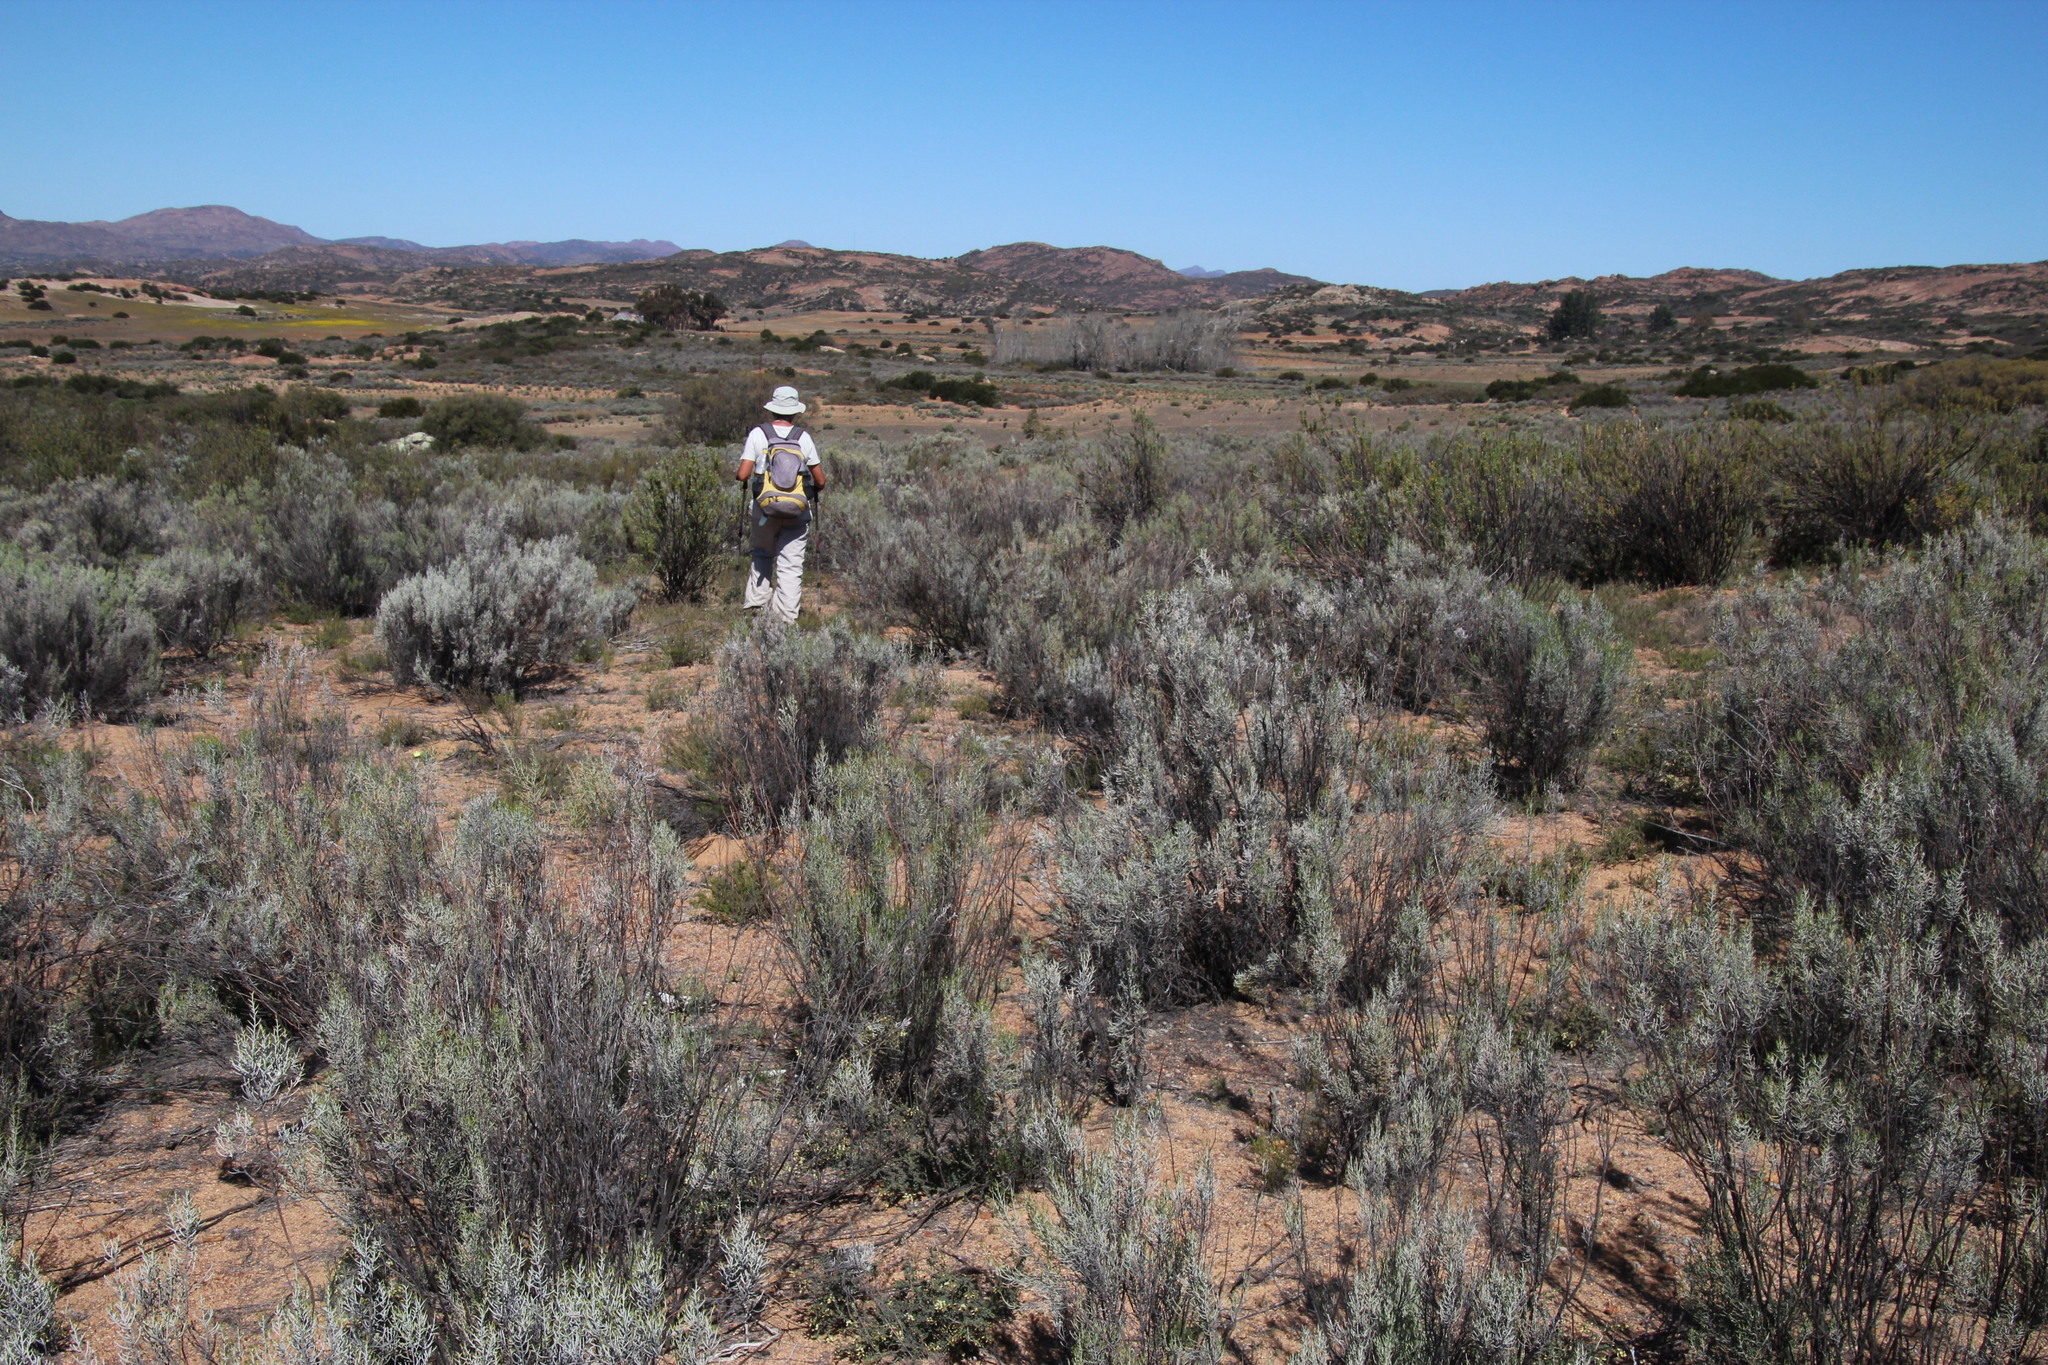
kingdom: Plantae
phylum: Tracheophyta
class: Magnoliopsida
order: Asterales
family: Asteraceae
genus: Dicerothamnus
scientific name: Dicerothamnus rhinocerotis
